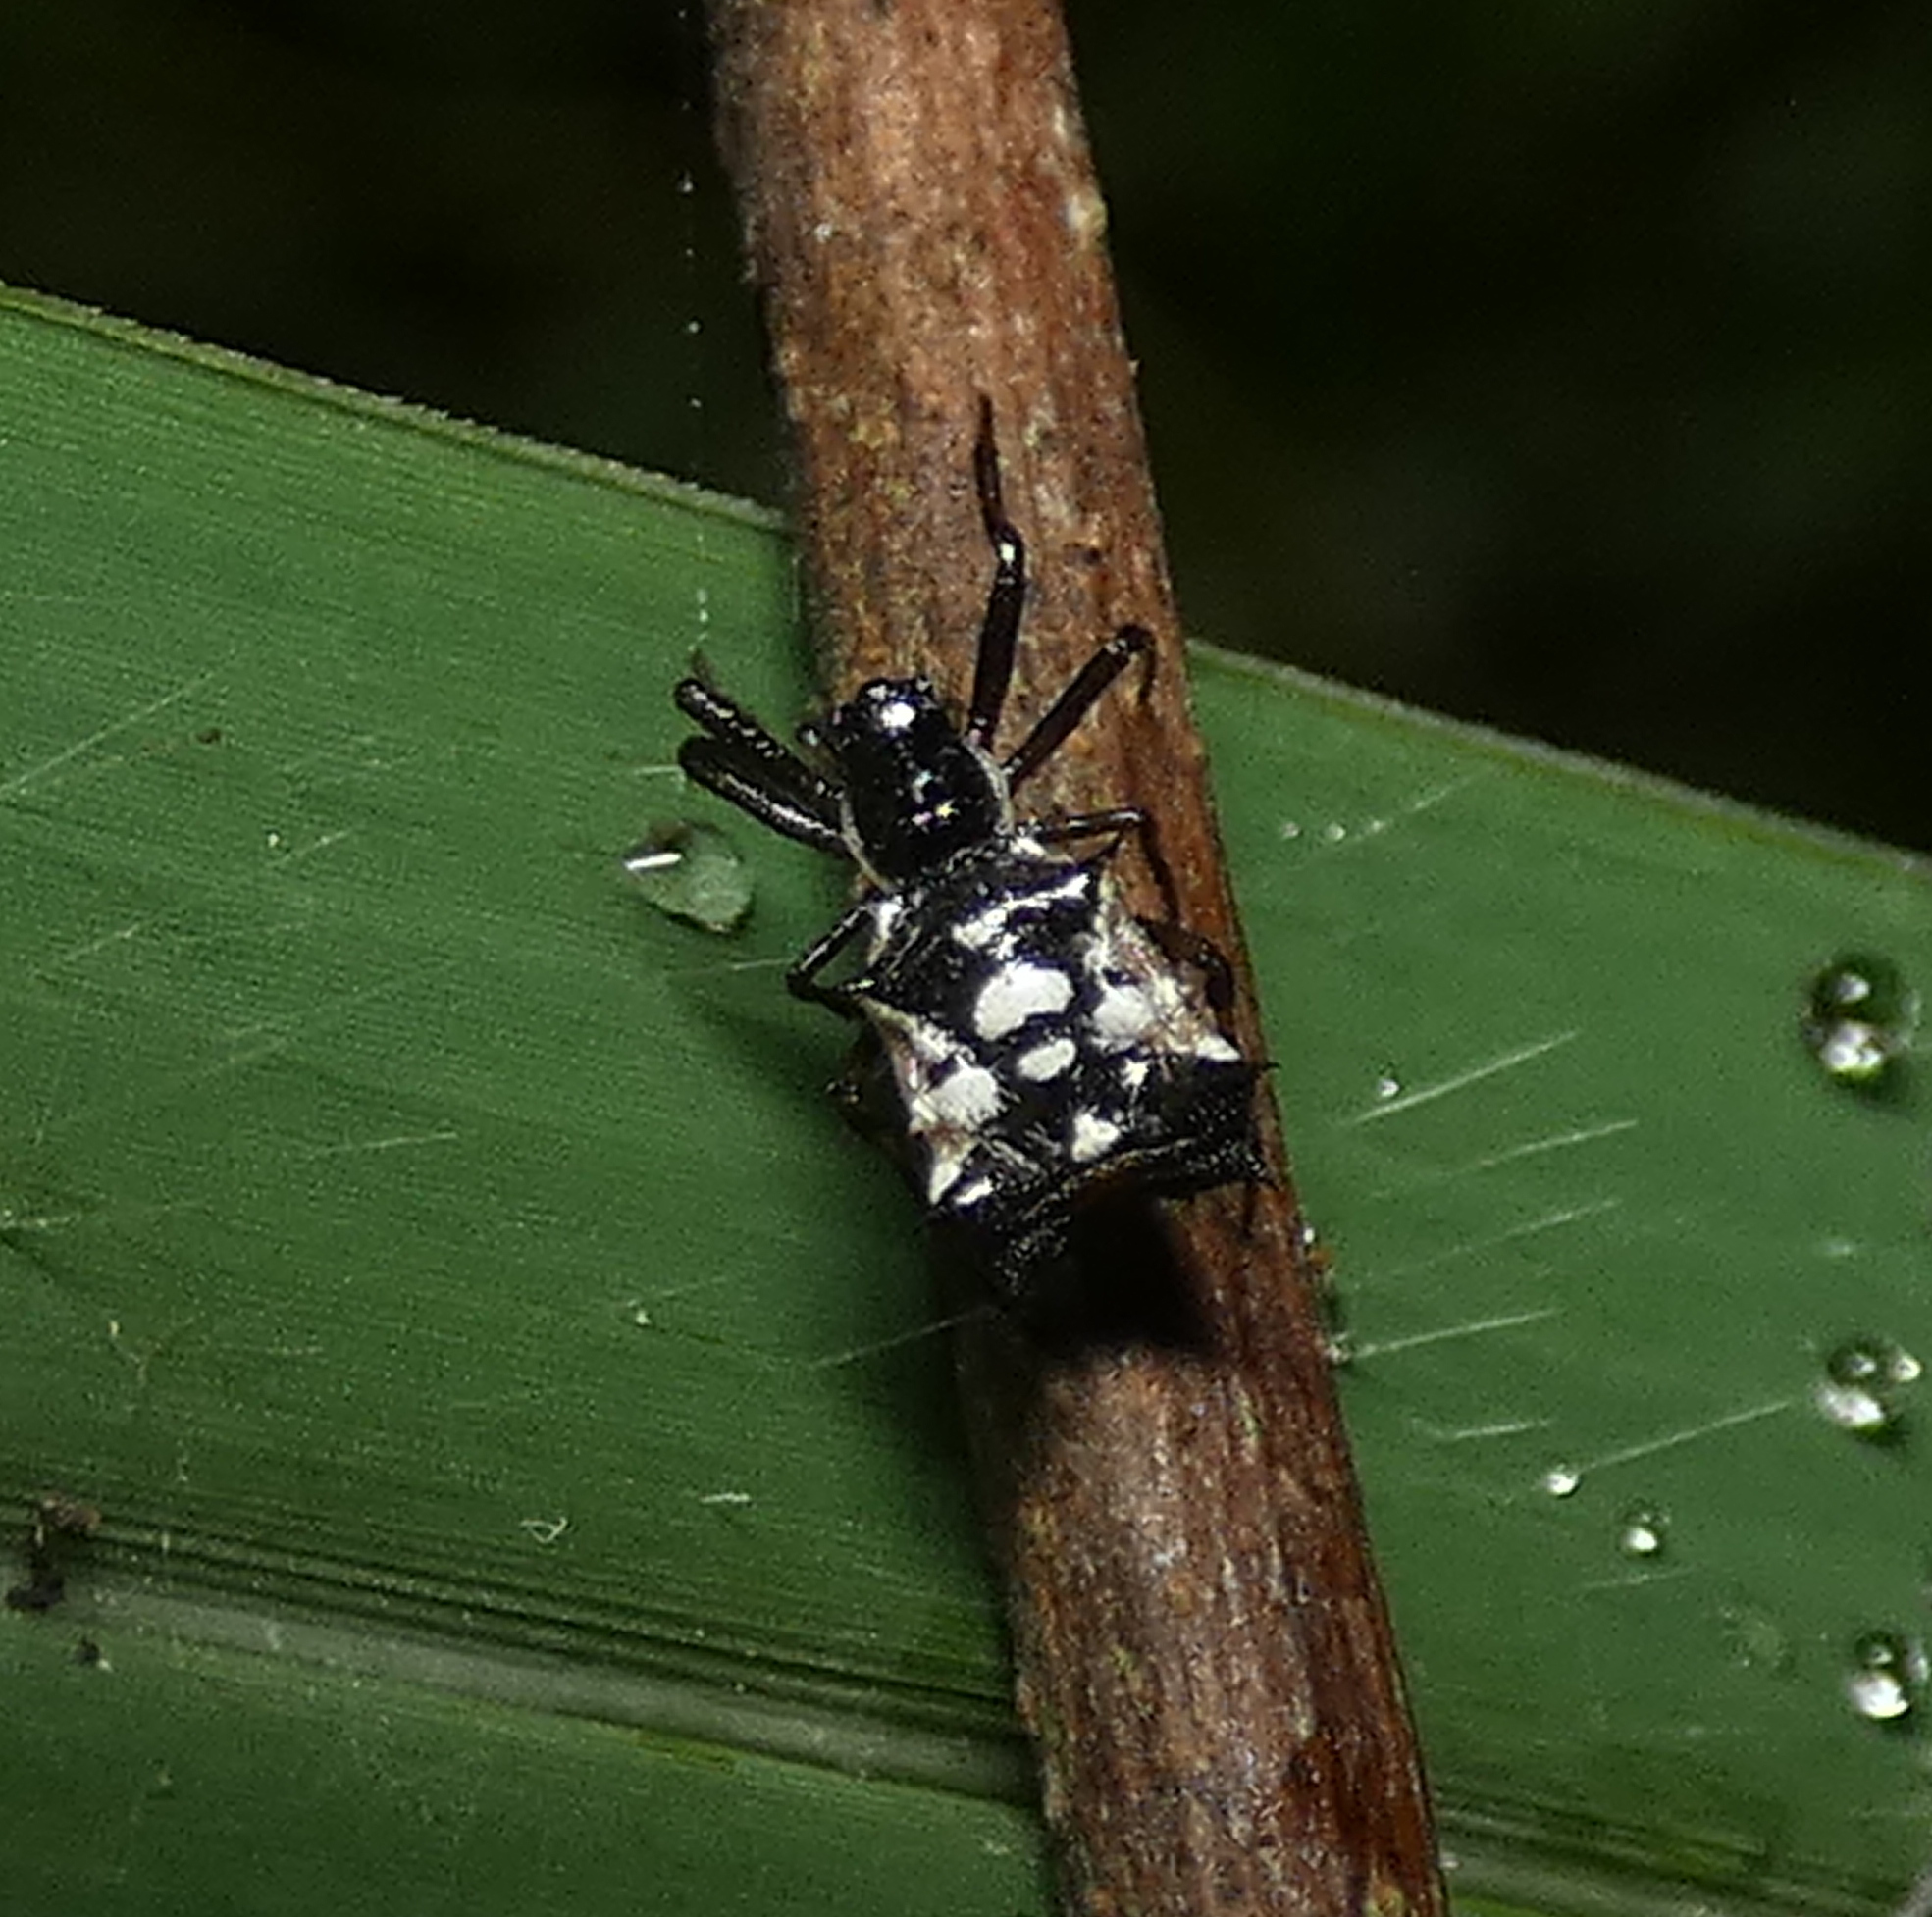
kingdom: Animalia
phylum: Arthropoda
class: Arachnida
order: Araneae
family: Araneidae
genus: Micrathena
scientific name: Micrathena picta
